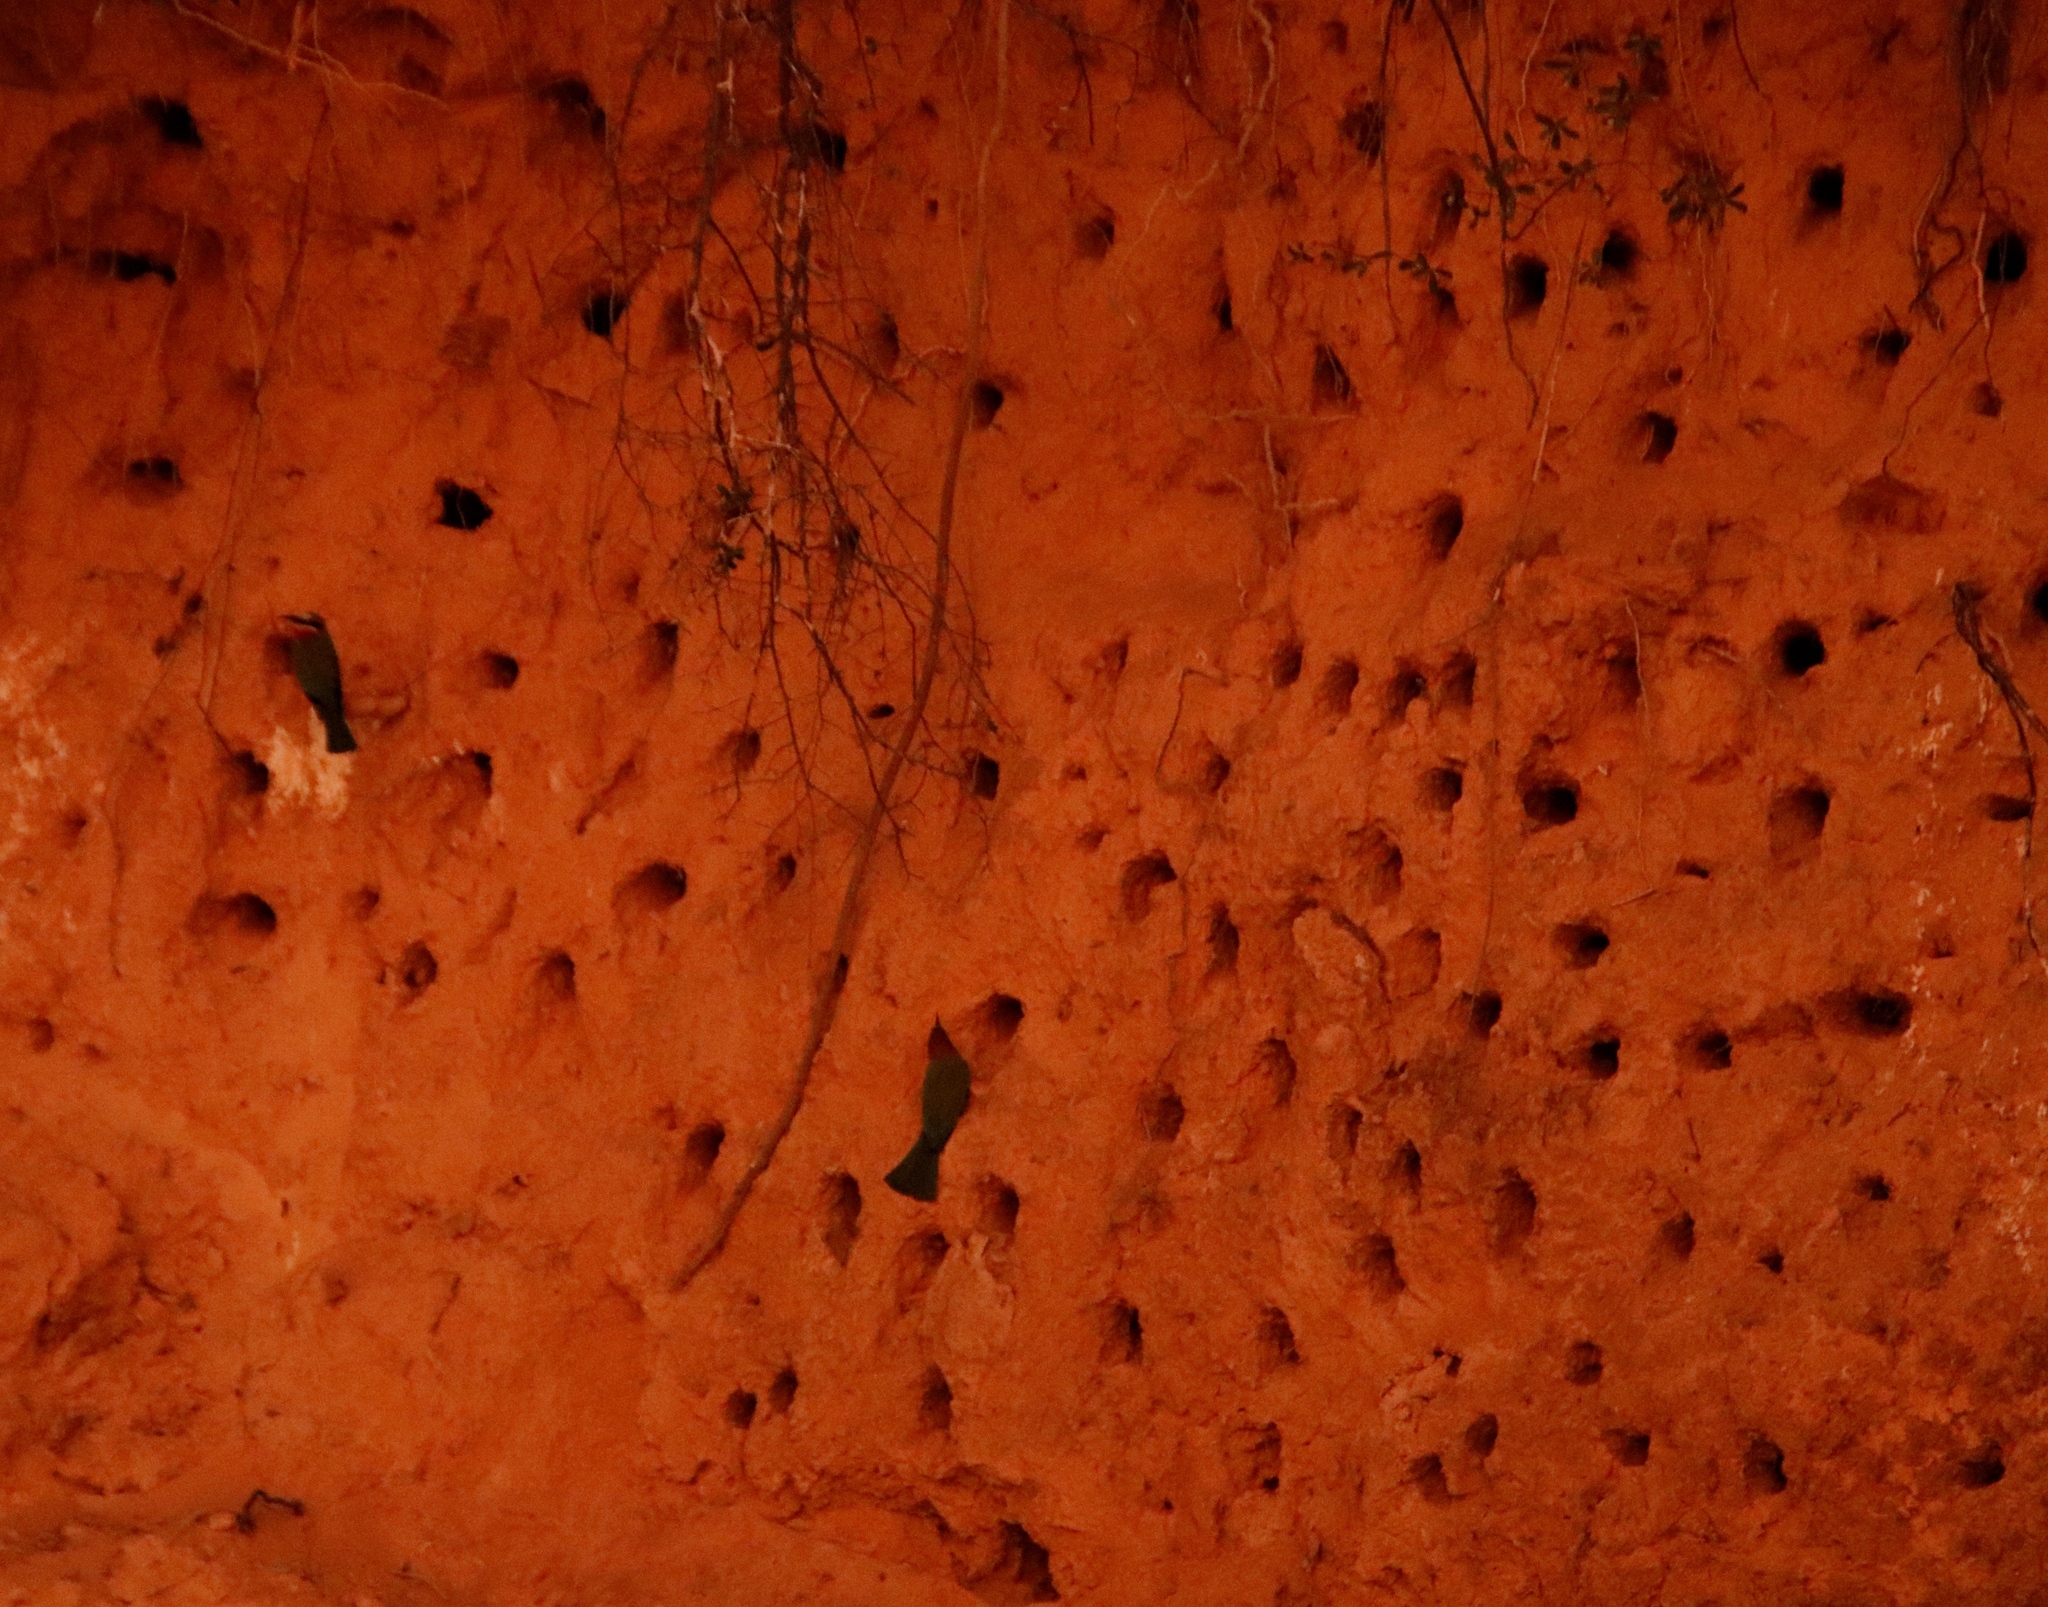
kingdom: Animalia
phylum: Chordata
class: Aves
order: Coraciiformes
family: Meropidae
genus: Merops
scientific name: Merops bullockoides
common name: White-fronted bee-eater
